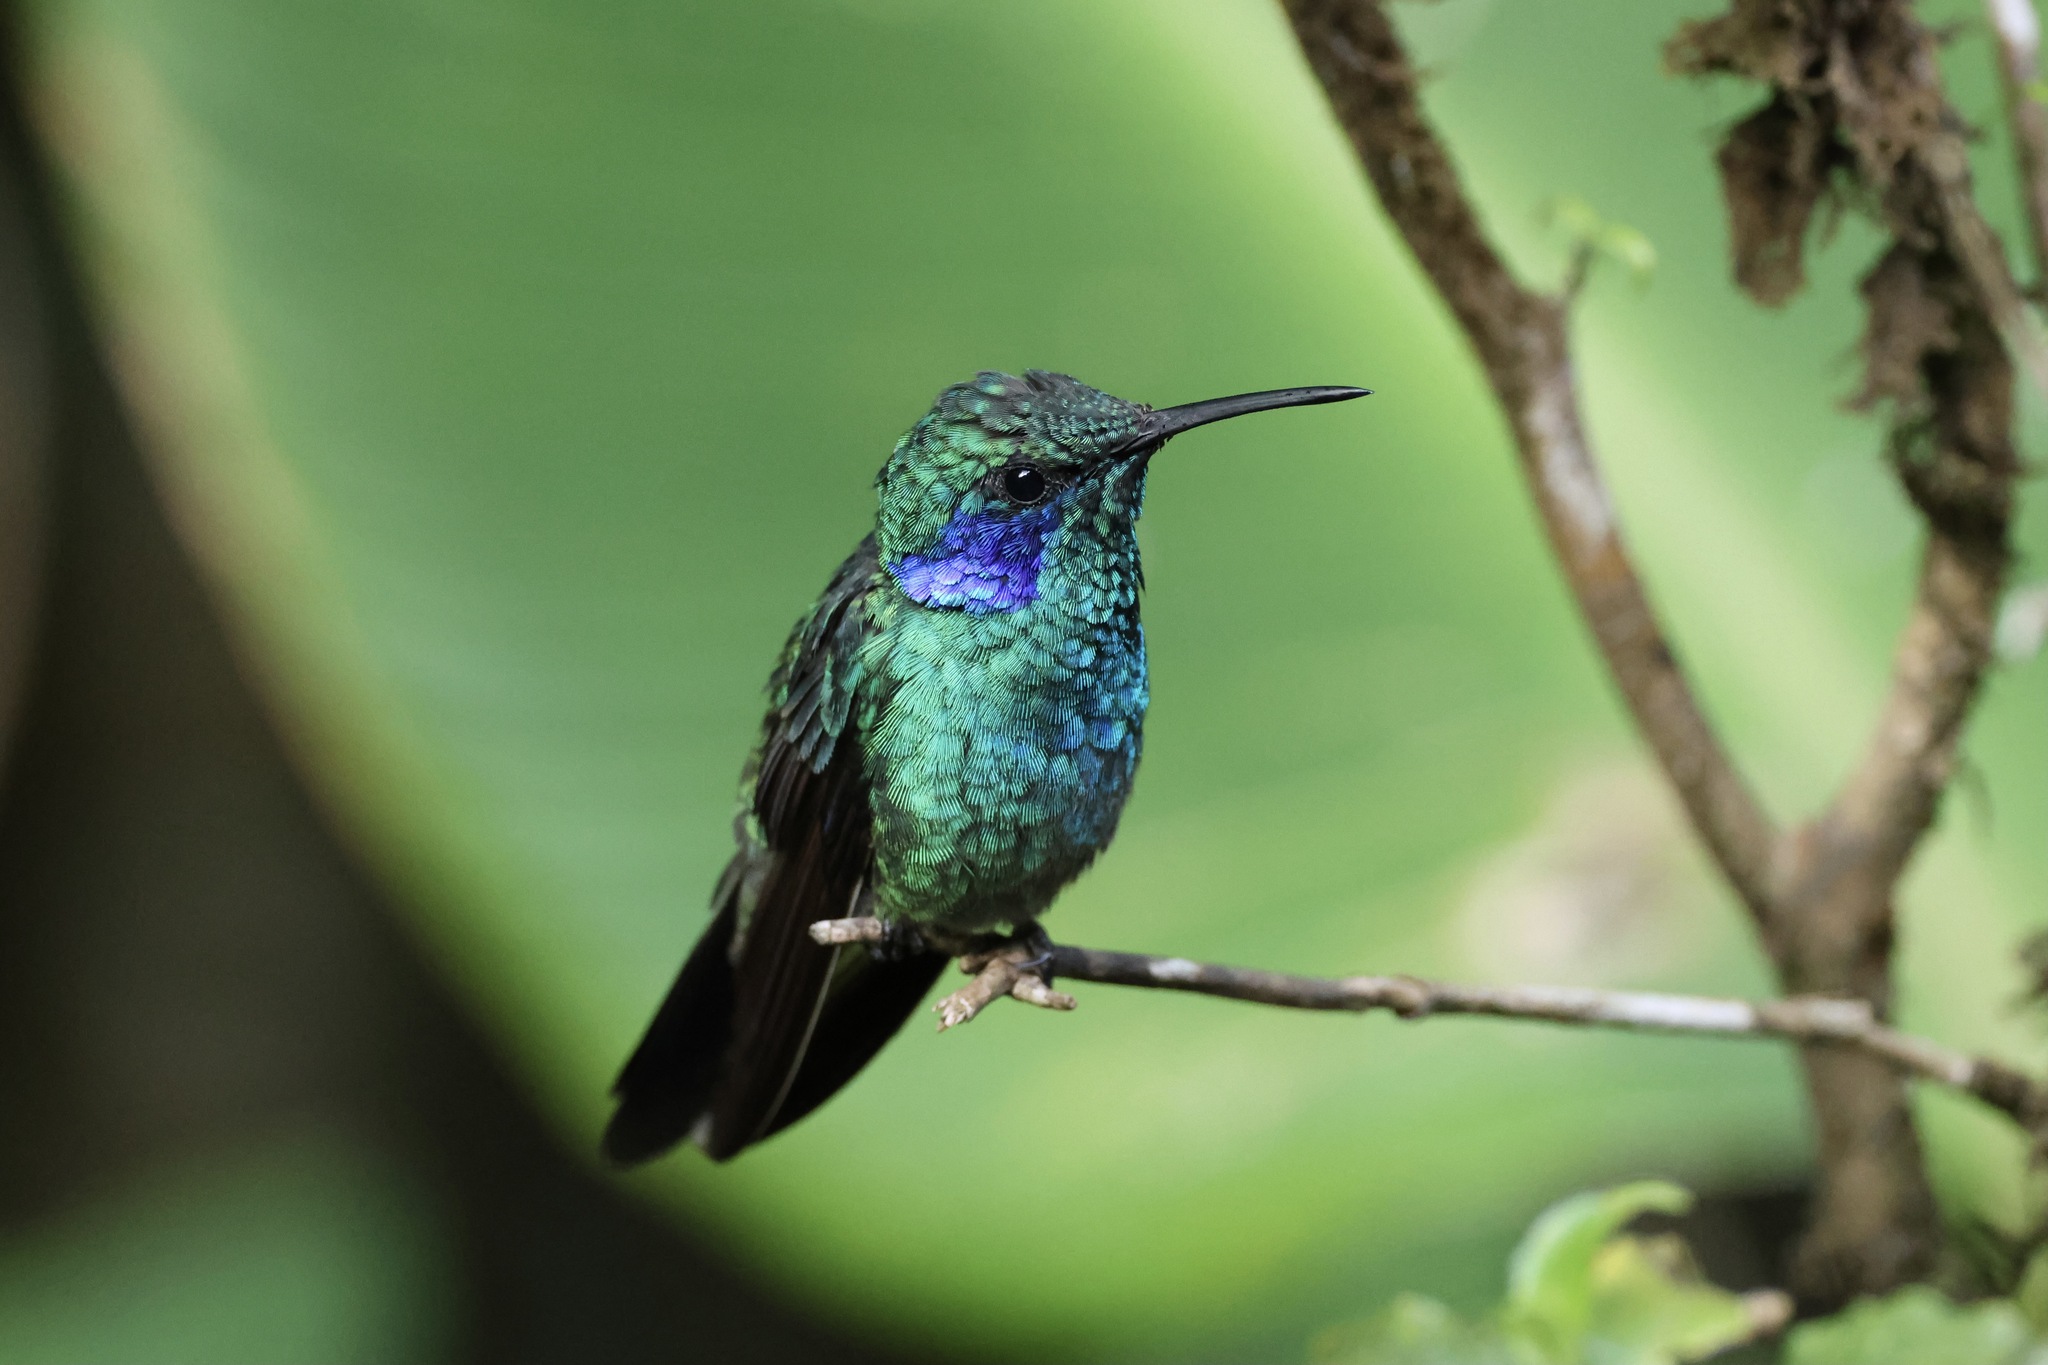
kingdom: Animalia
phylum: Chordata
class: Aves
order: Apodiformes
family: Trochilidae
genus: Colibri
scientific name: Colibri cyanotus
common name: Lesser violetear
